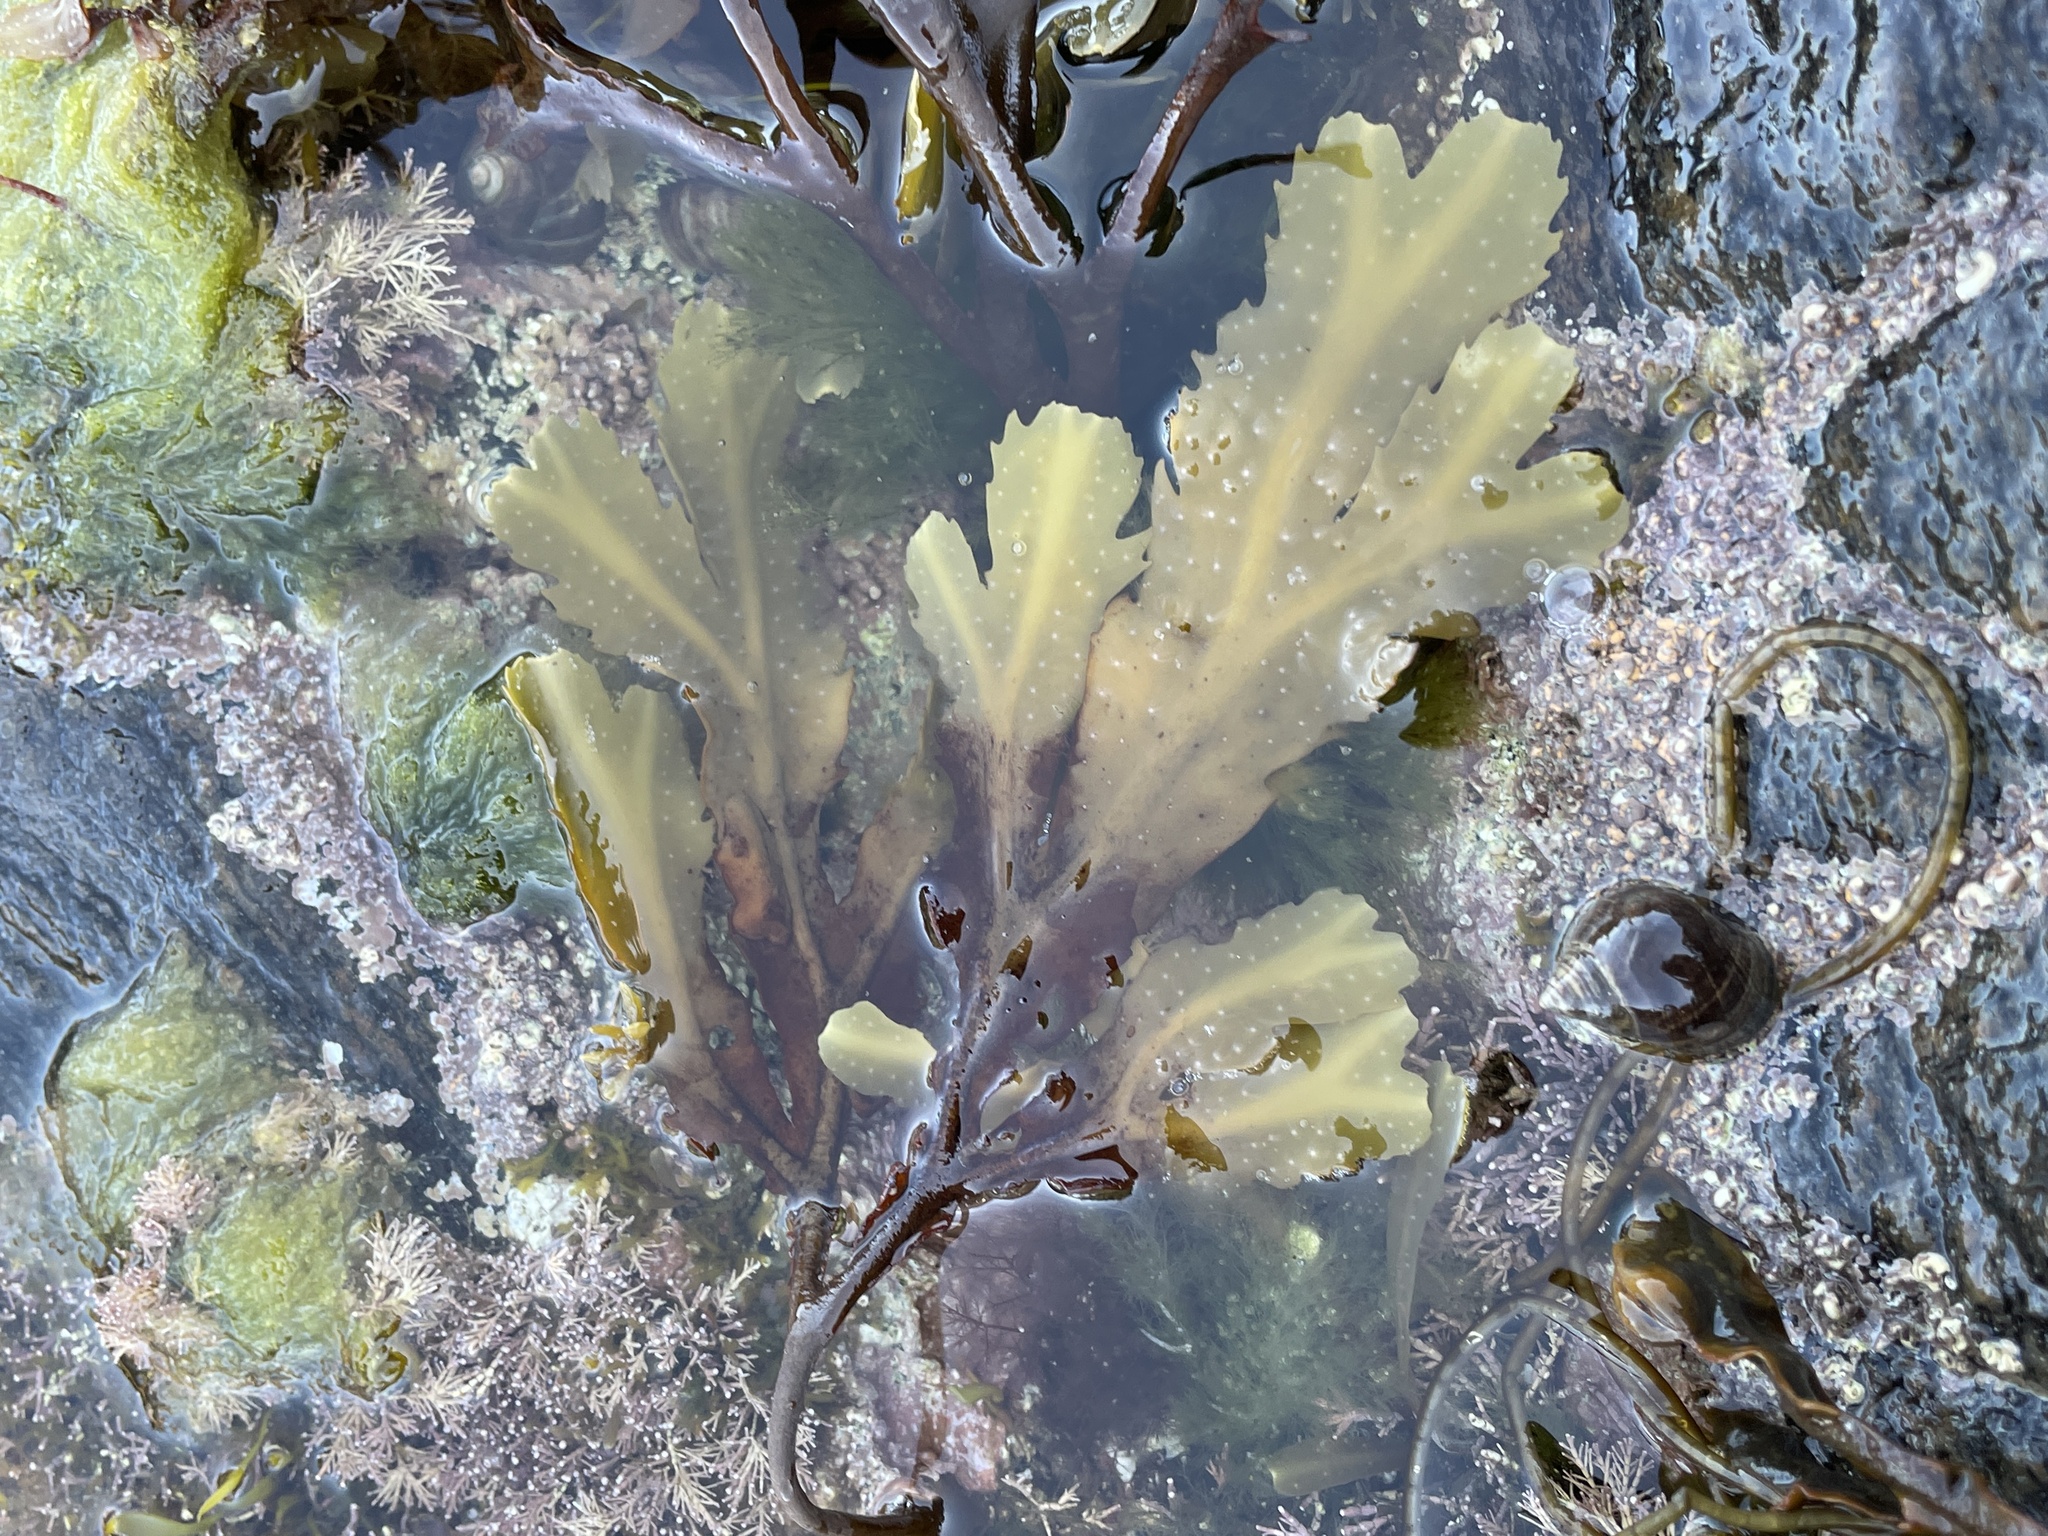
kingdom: Chromista
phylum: Ochrophyta
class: Phaeophyceae
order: Fucales
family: Fucaceae
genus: Fucus
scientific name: Fucus serratus
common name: Toothed wrack
